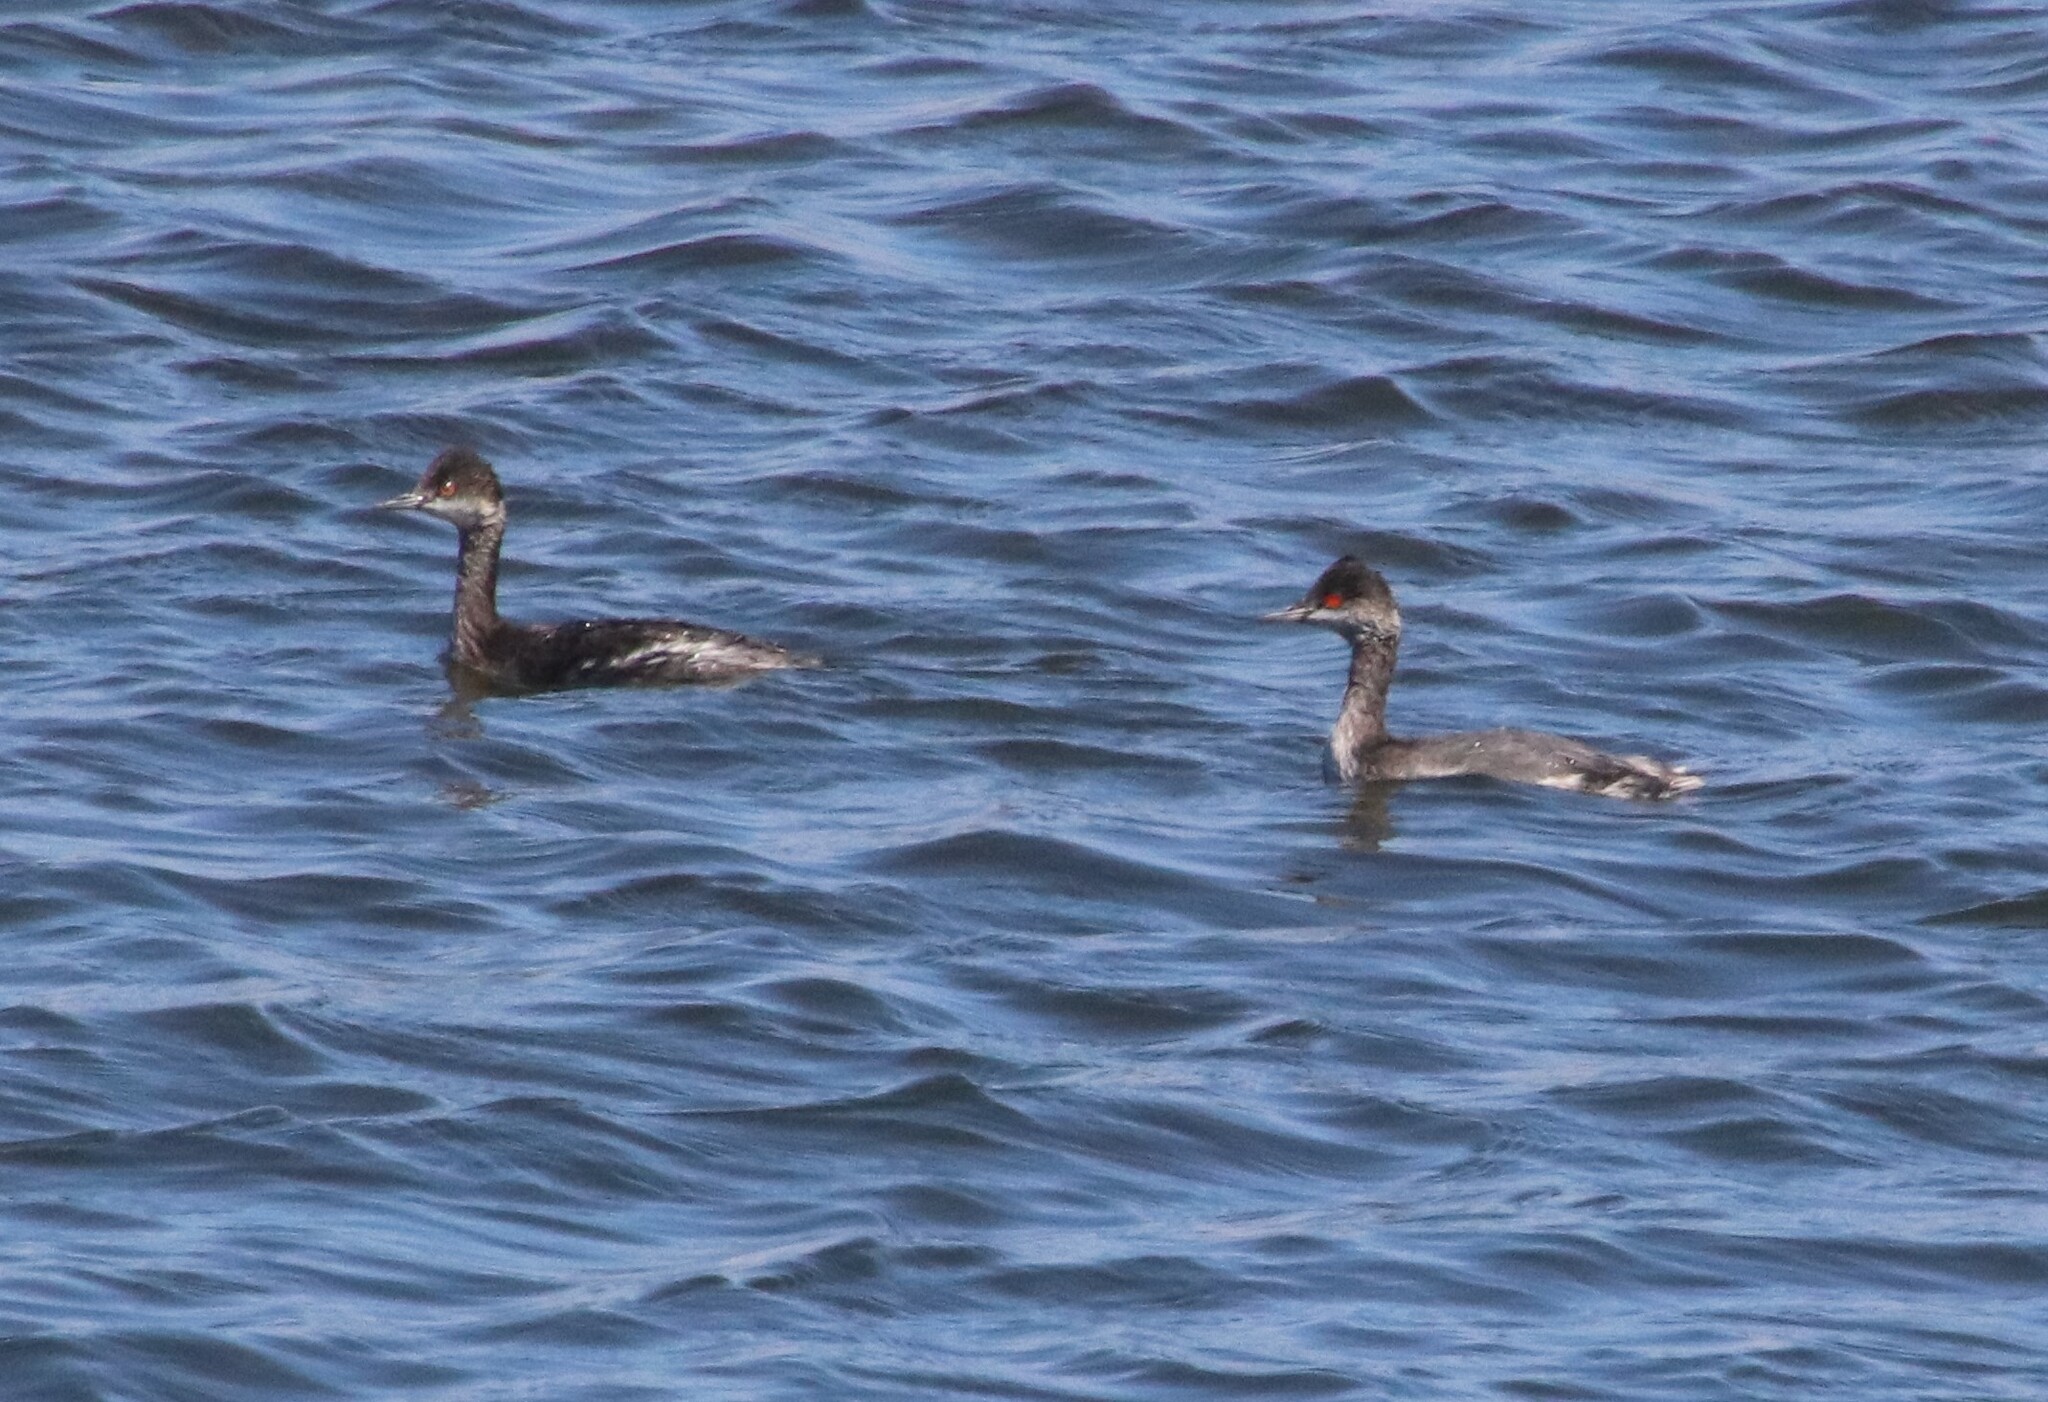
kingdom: Animalia
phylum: Chordata
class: Aves
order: Podicipediformes
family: Podicipedidae
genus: Podiceps
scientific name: Podiceps nigricollis
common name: Black-necked grebe
